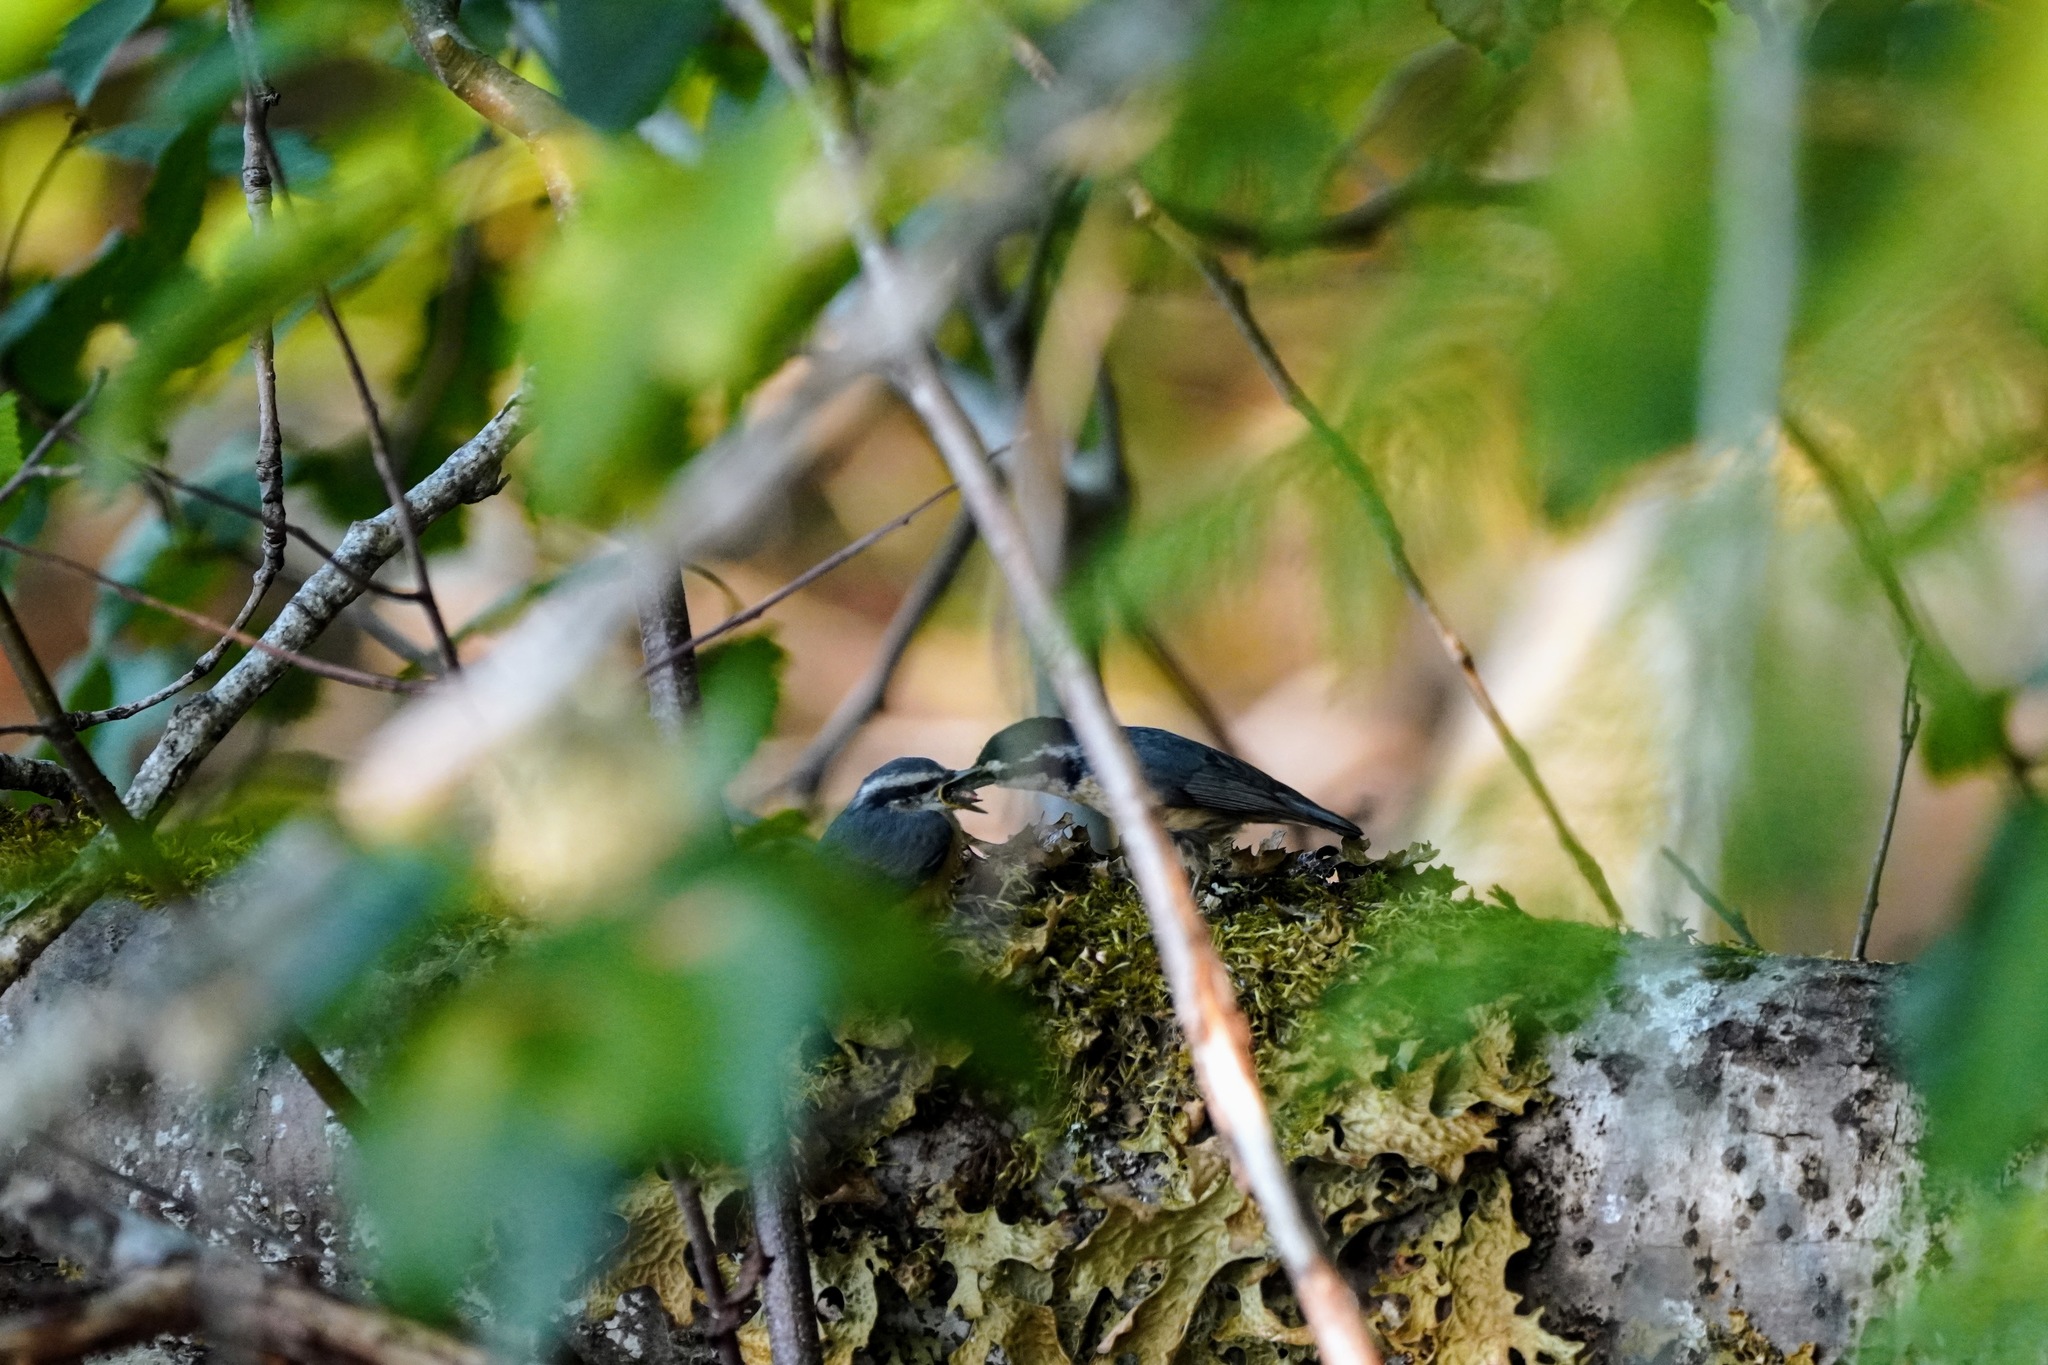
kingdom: Animalia
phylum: Chordata
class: Aves
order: Passeriformes
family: Sittidae
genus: Sitta
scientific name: Sitta canadensis
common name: Red-breasted nuthatch
